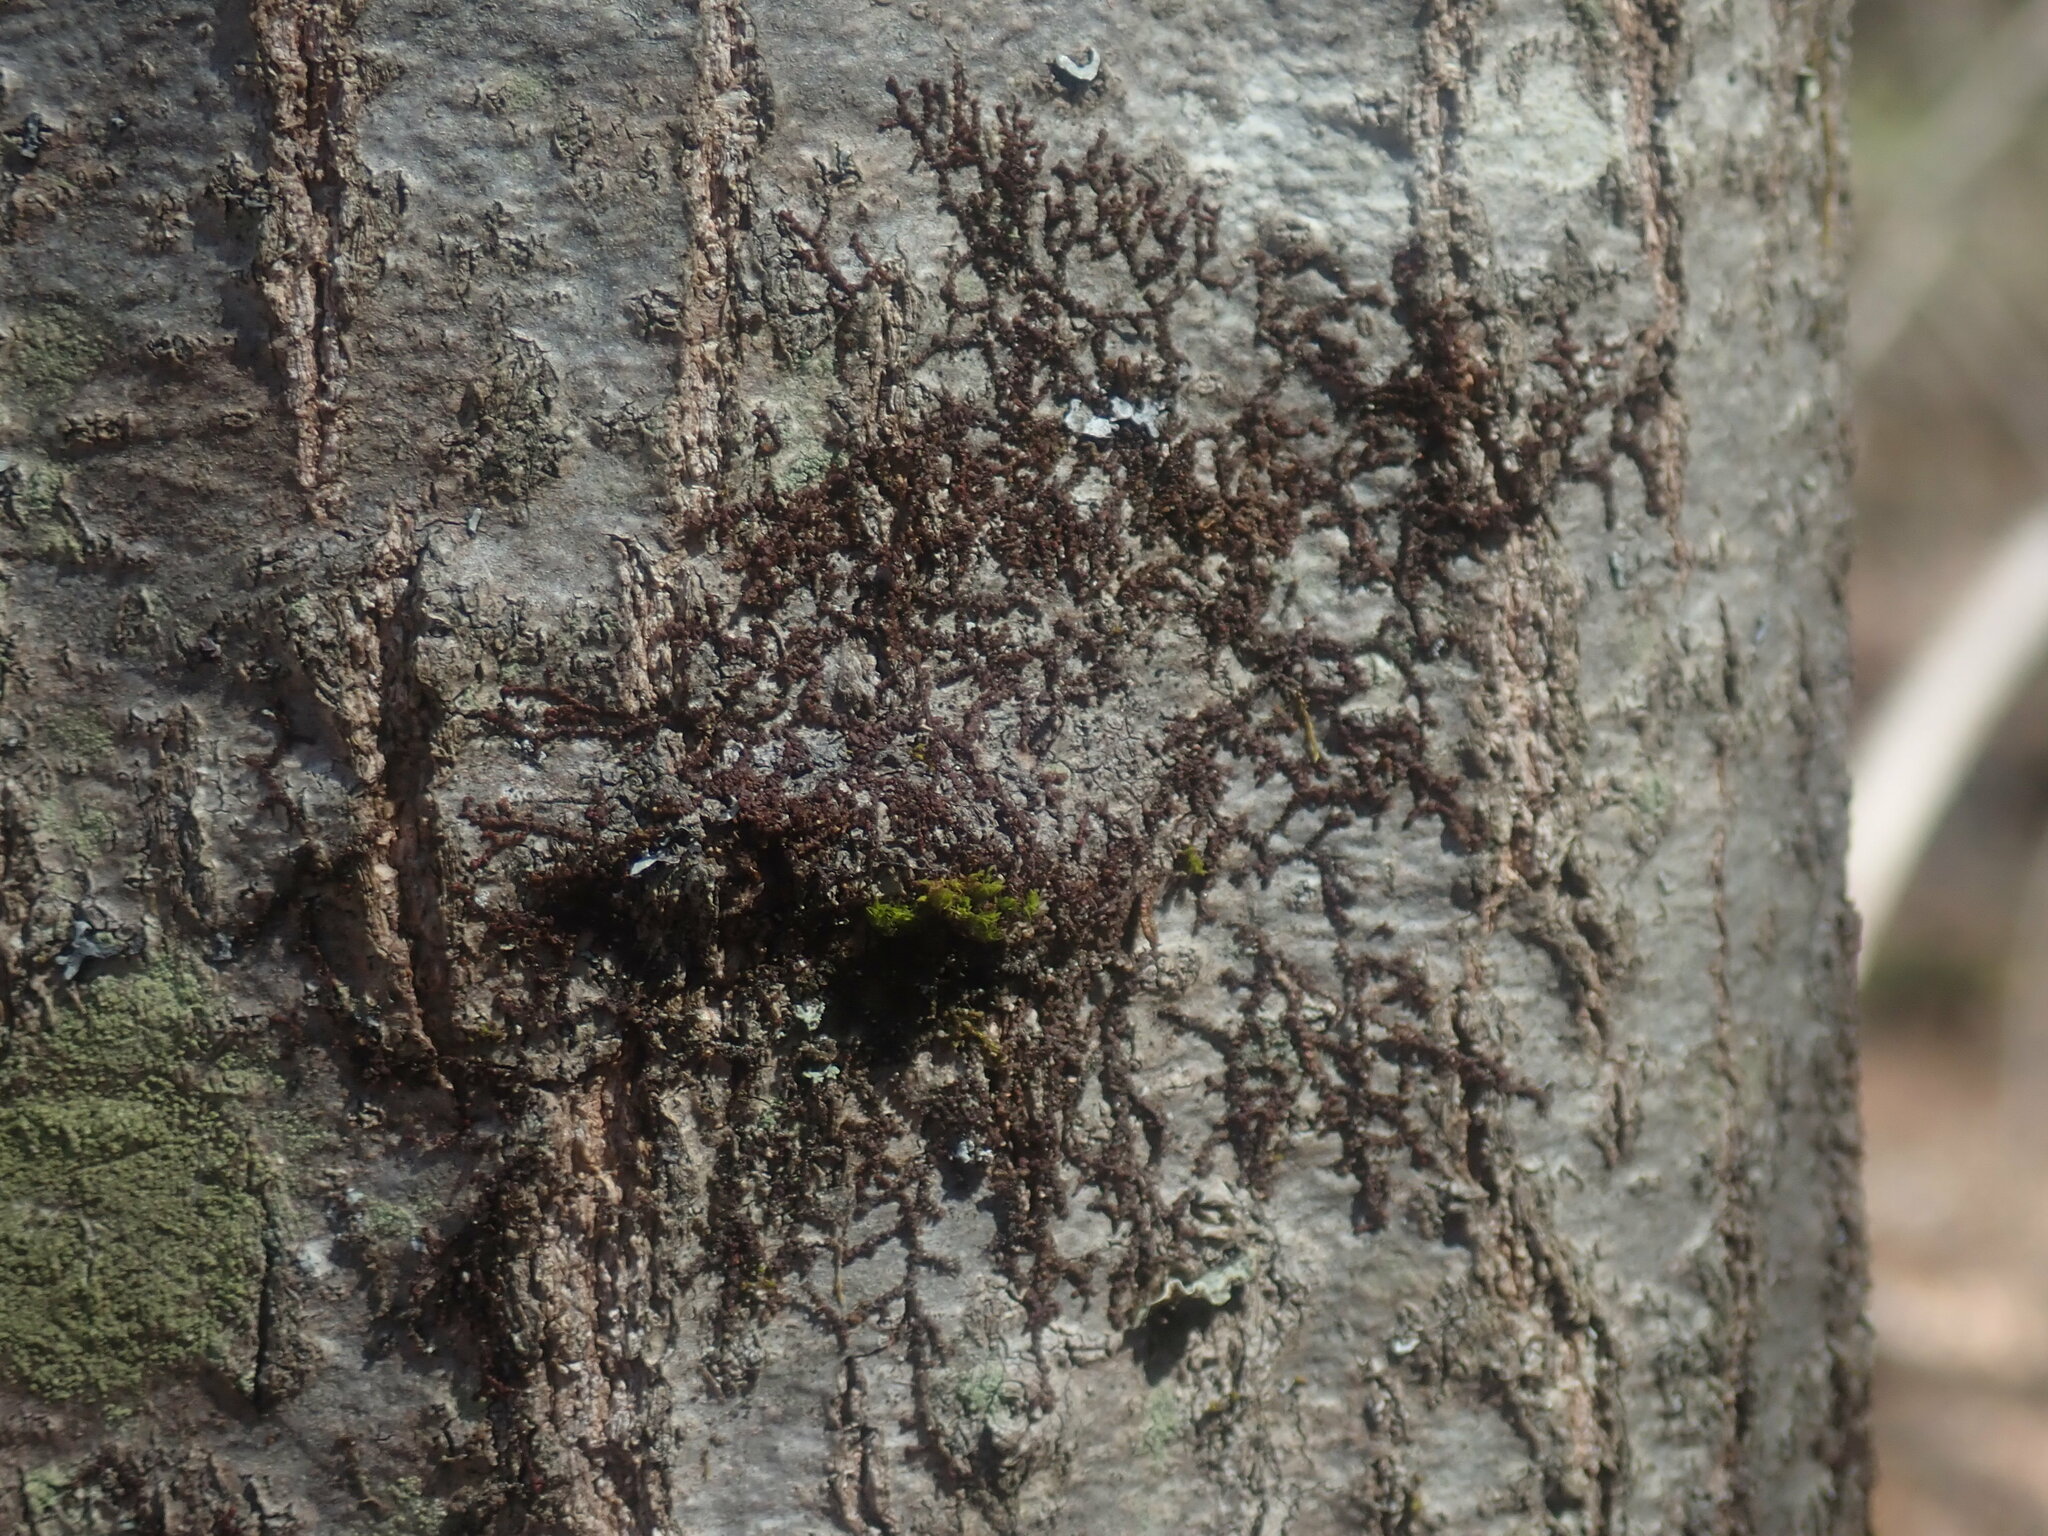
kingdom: Plantae
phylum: Marchantiophyta
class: Jungermanniopsida
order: Porellales
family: Frullaniaceae
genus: Frullania
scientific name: Frullania
